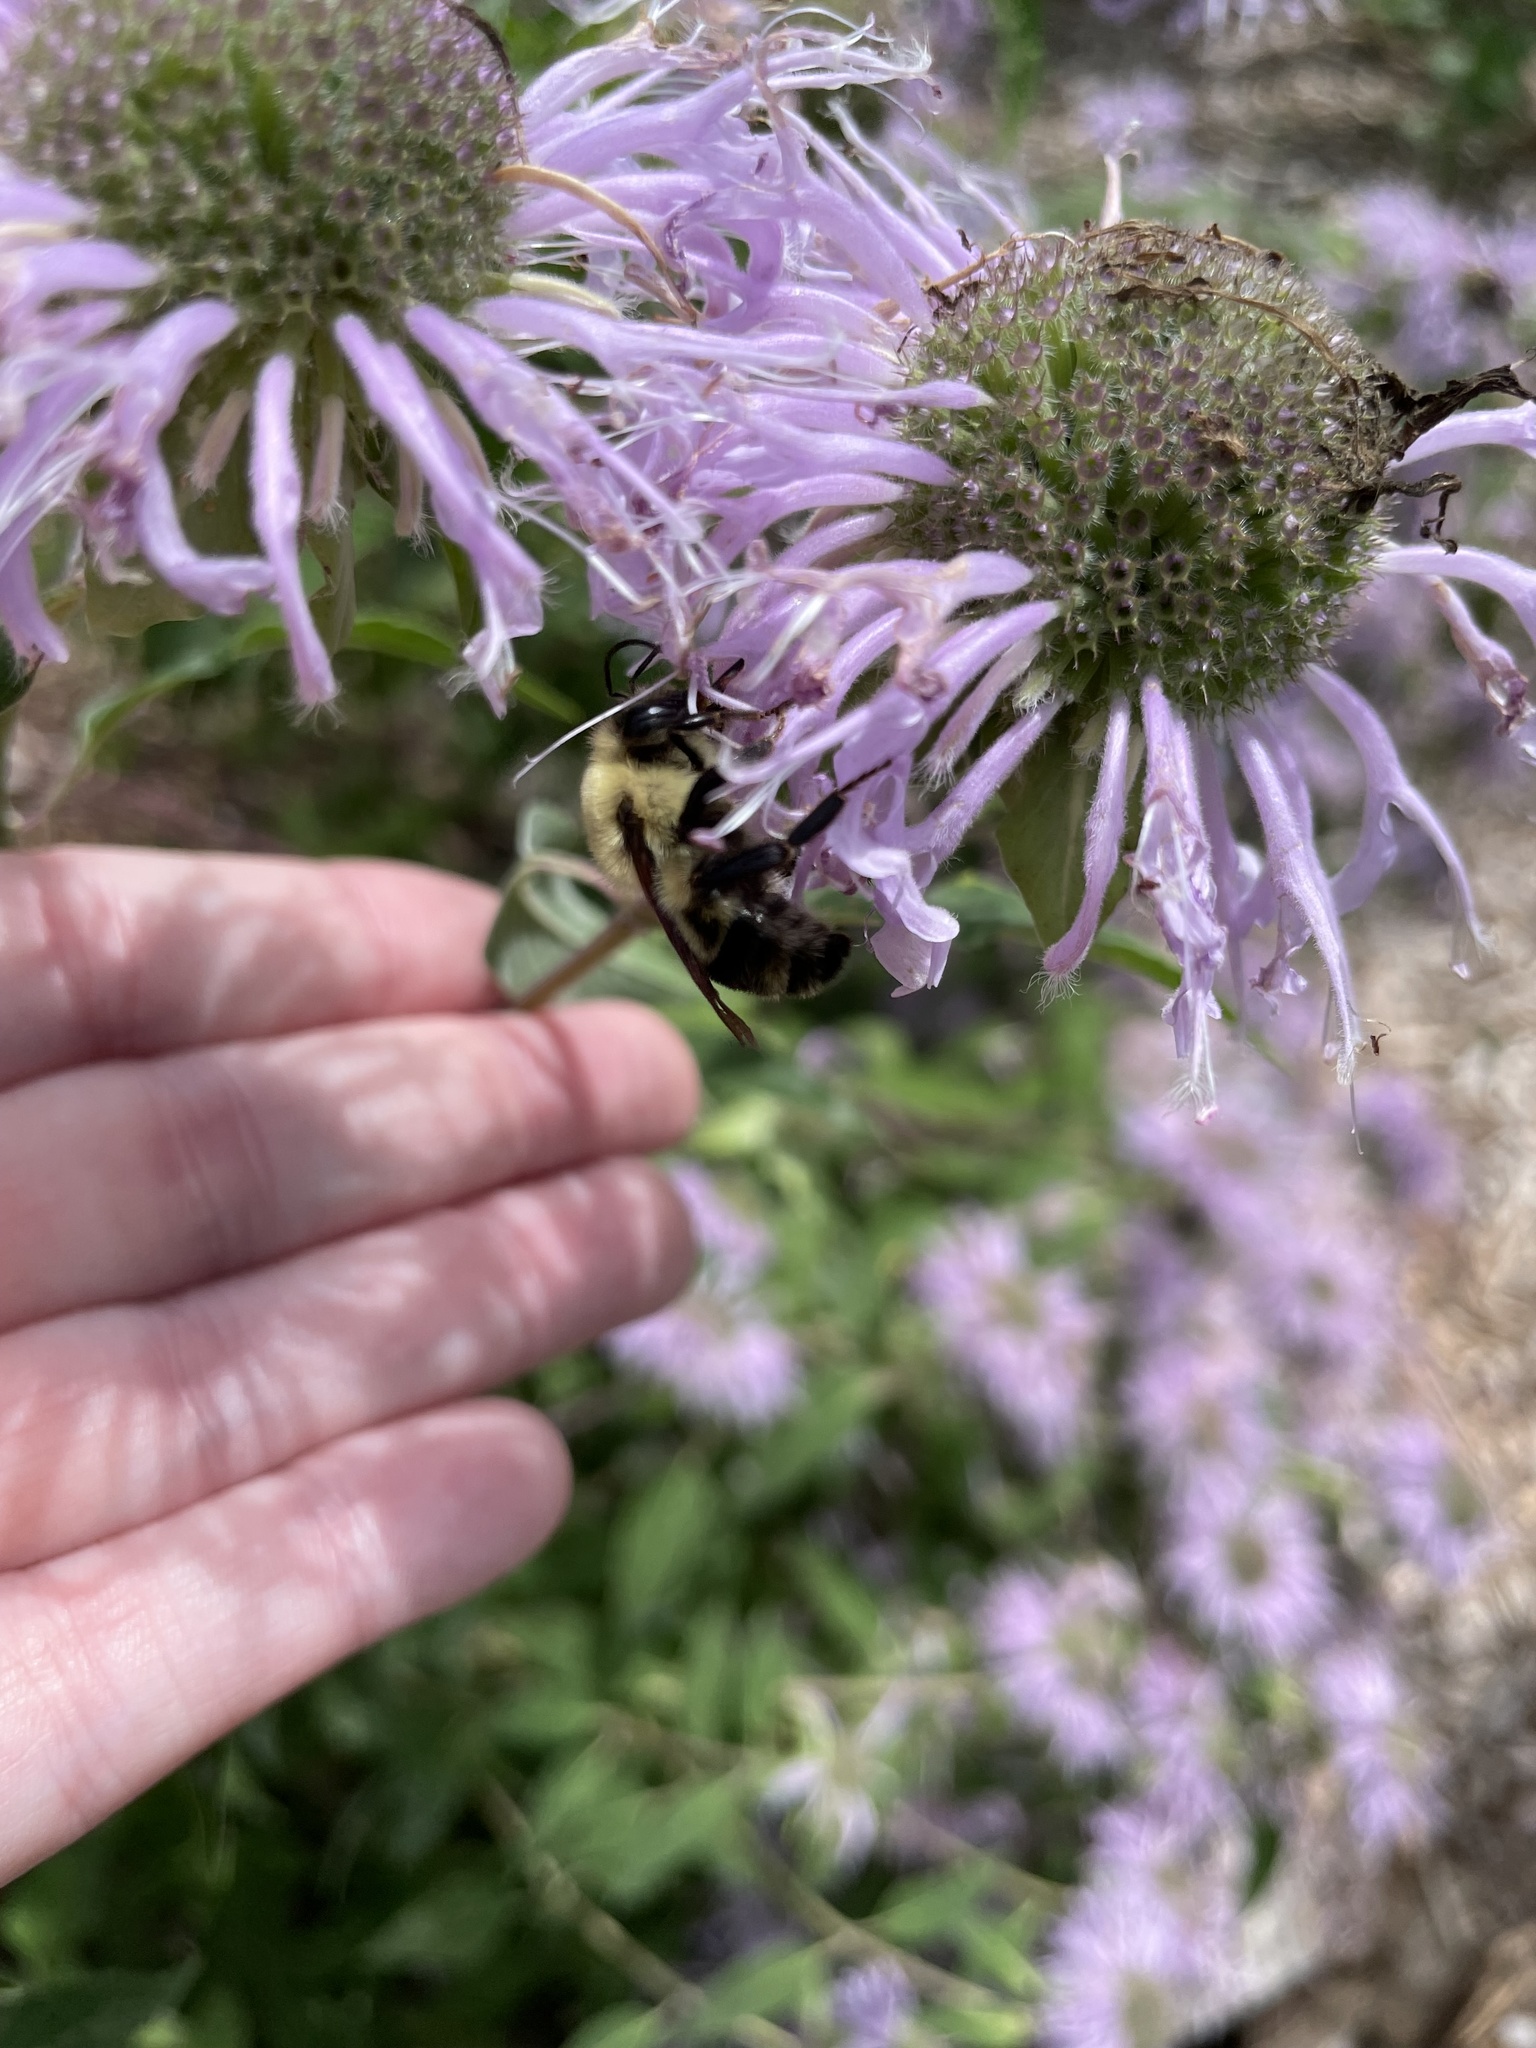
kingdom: Animalia
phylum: Arthropoda
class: Insecta
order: Hymenoptera
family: Apidae
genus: Bombus
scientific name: Bombus bimaculatus
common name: Two-spotted bumble bee
